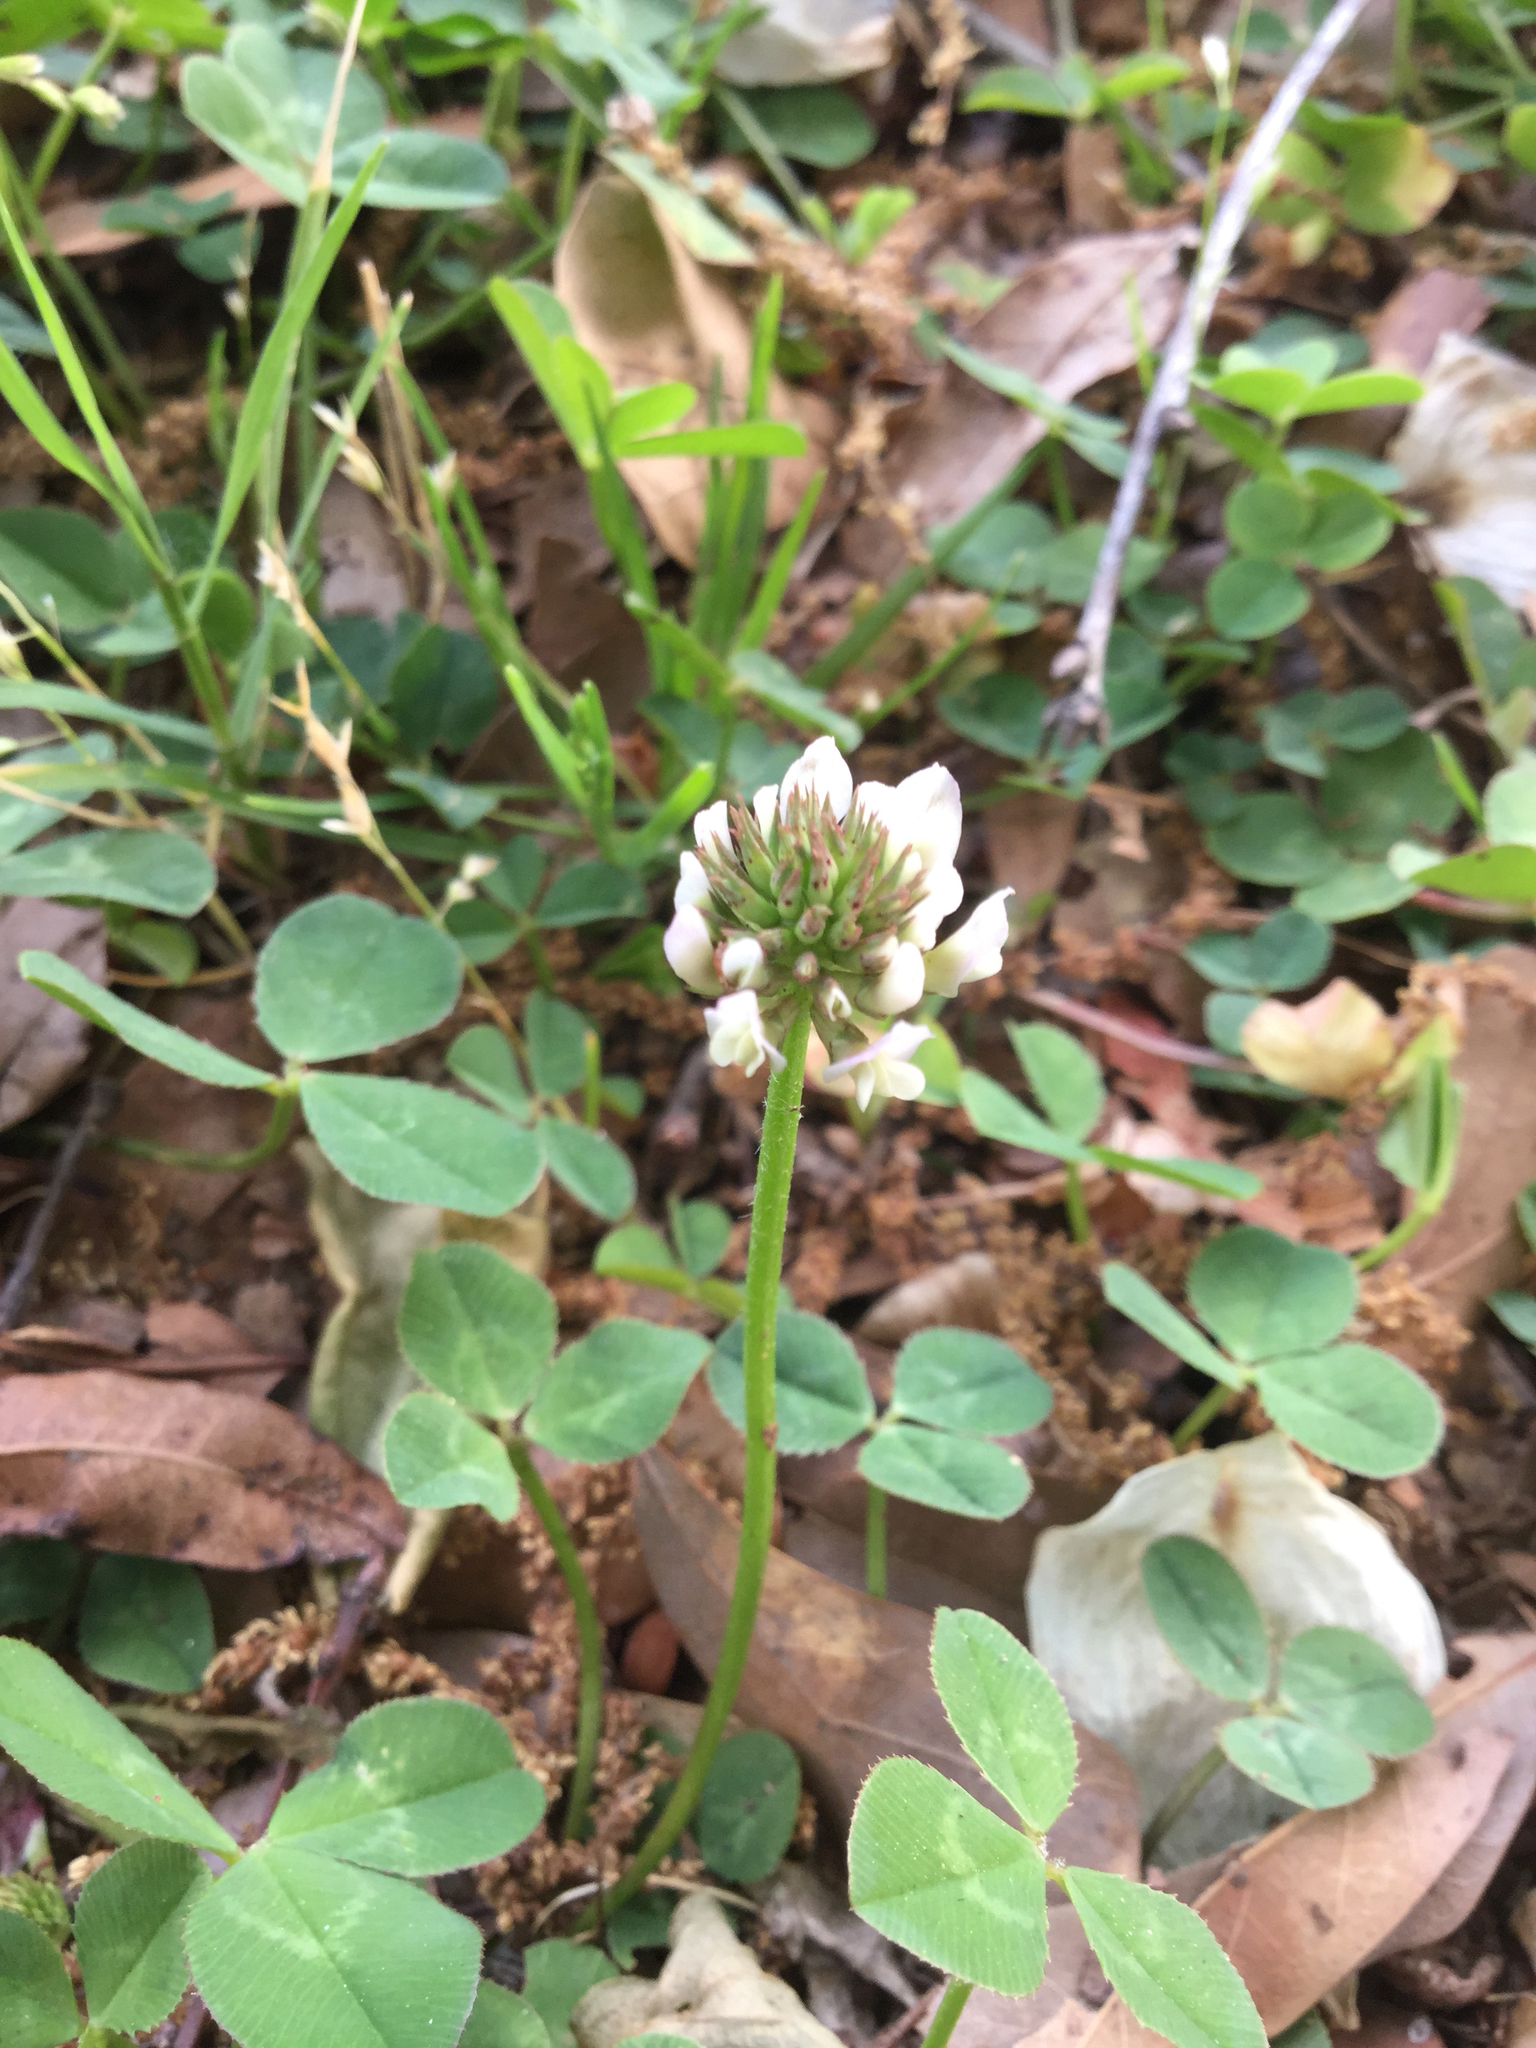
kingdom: Plantae
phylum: Tracheophyta
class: Magnoliopsida
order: Fabales
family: Fabaceae
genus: Trifolium
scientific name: Trifolium repens
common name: White clover
